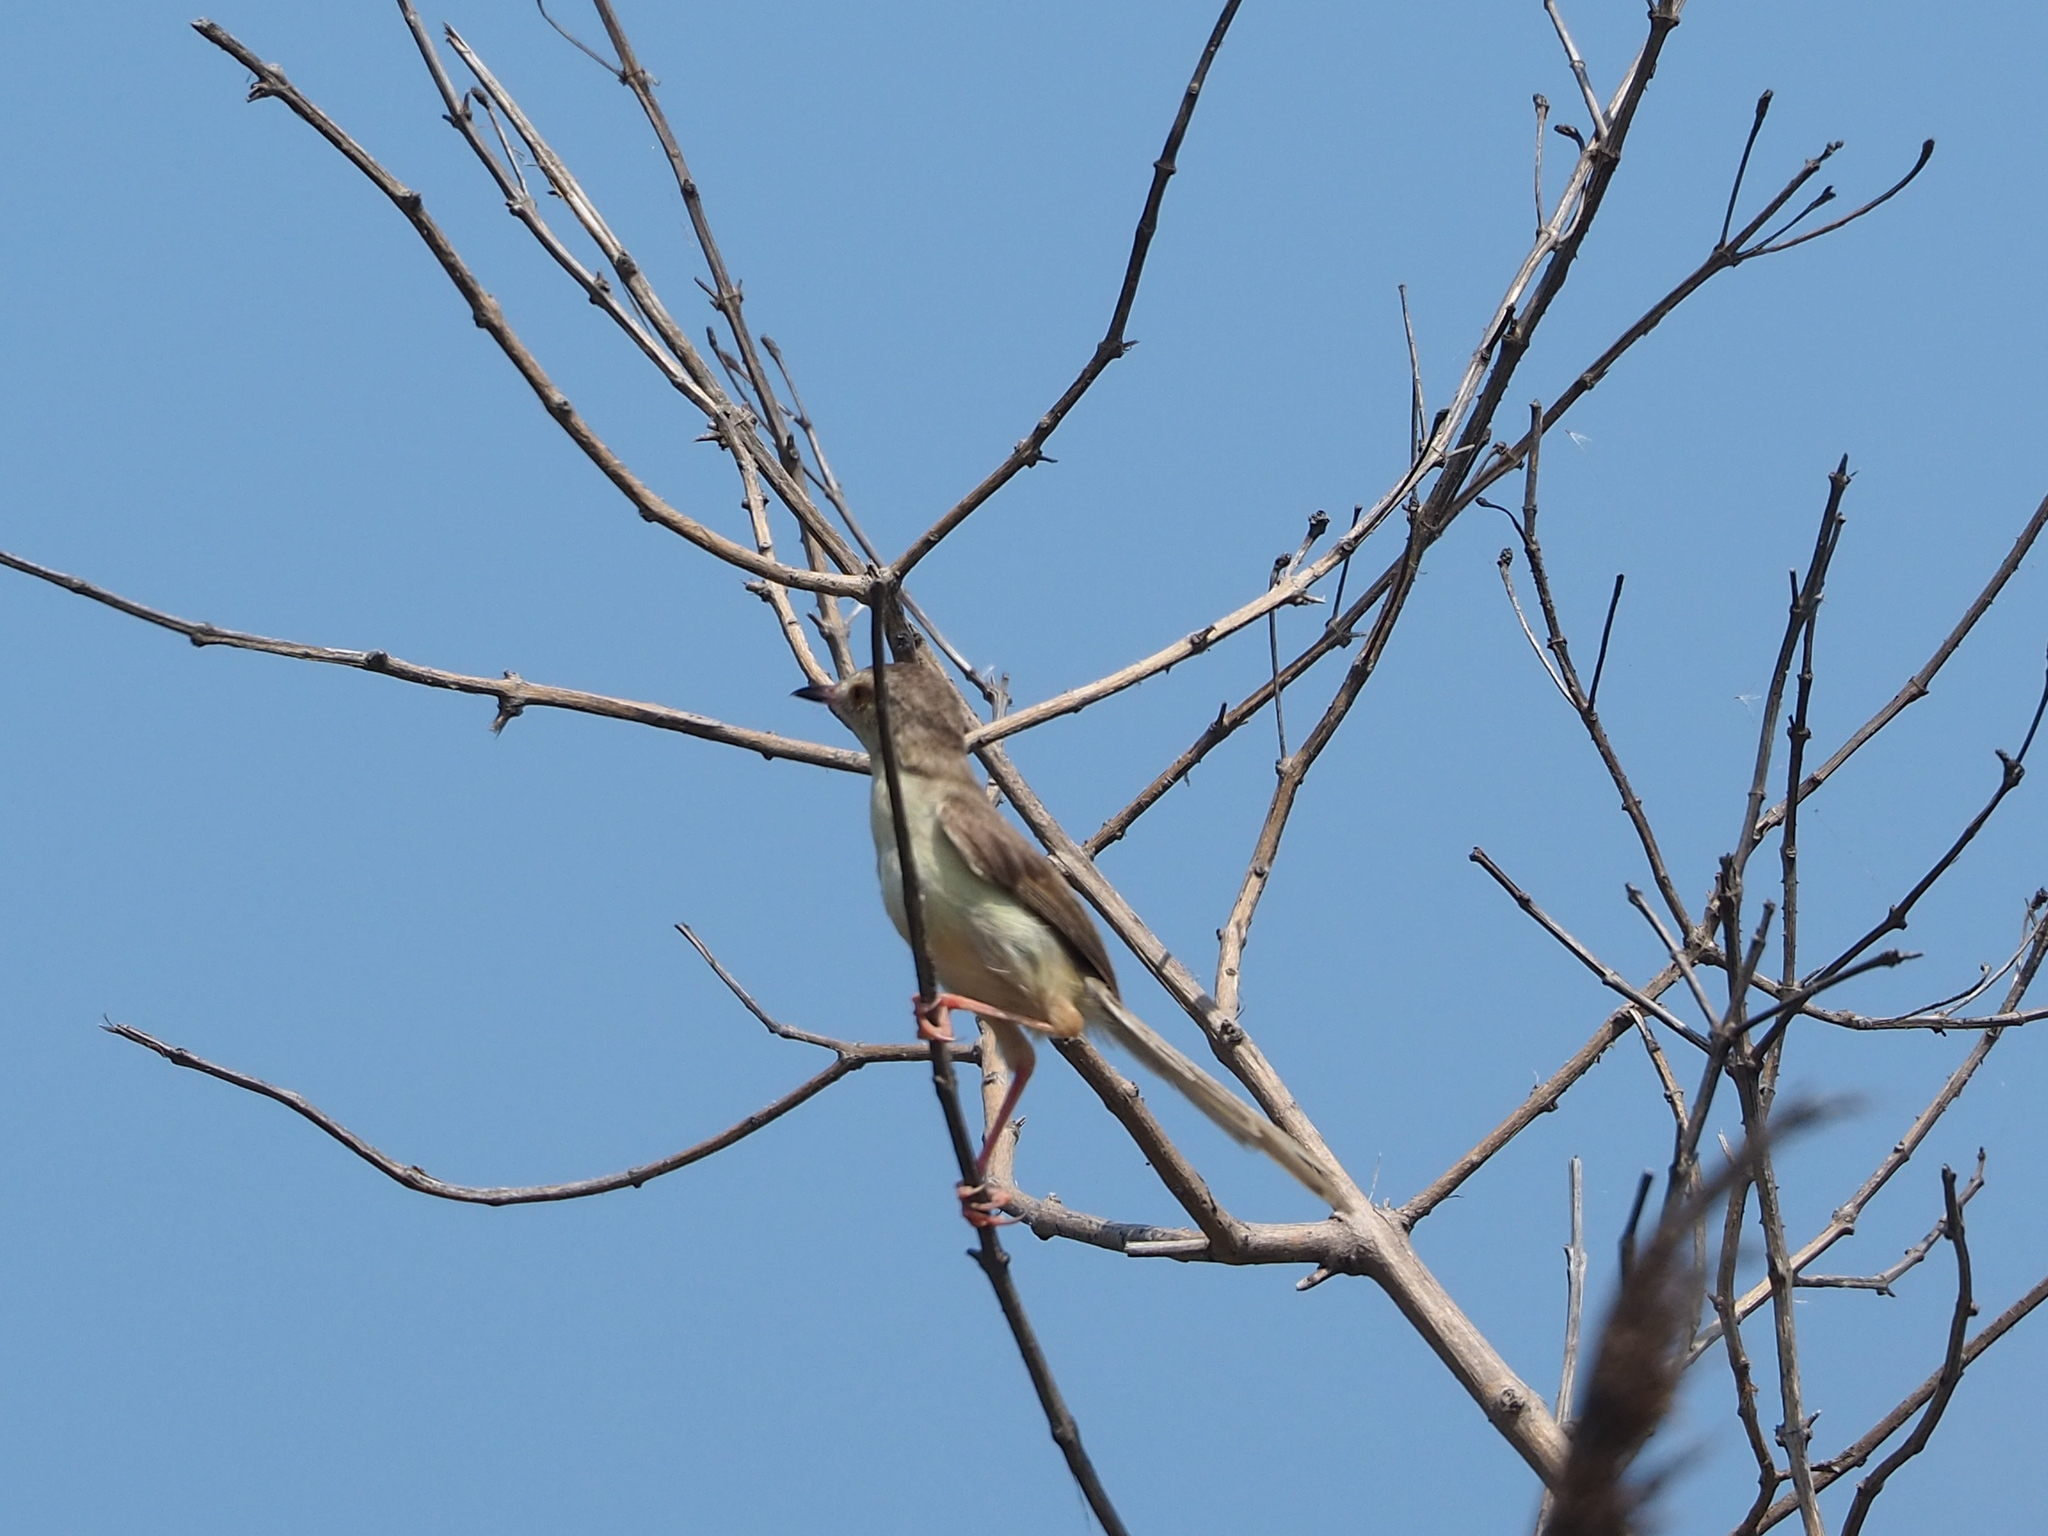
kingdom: Animalia
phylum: Chordata
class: Aves
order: Passeriformes
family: Cisticolidae
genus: Prinia
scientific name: Prinia inornata
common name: Plain prinia
